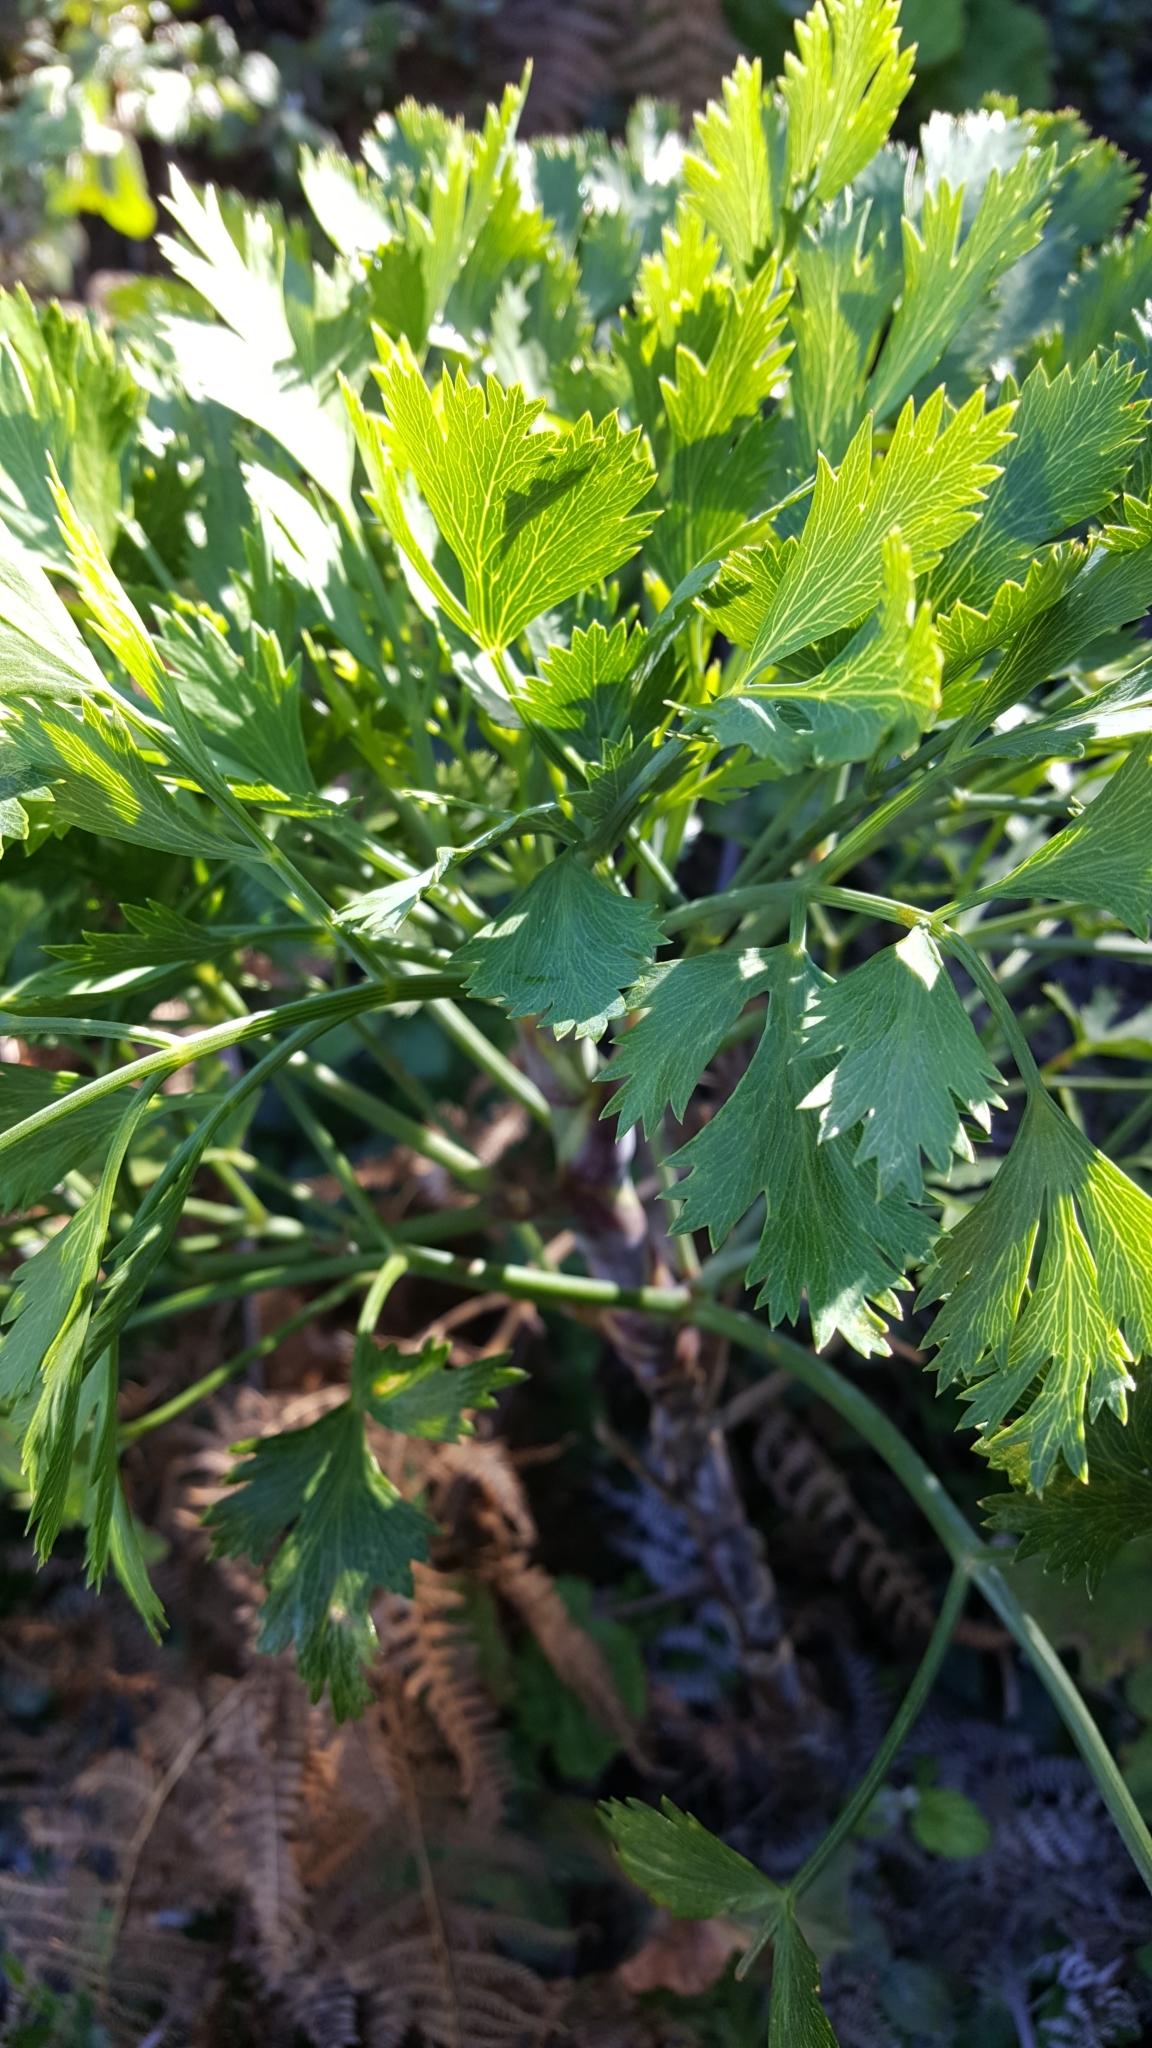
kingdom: Plantae
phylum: Tracheophyta
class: Magnoliopsida
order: Apiales
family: Apiaceae
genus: Notobubon
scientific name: Notobubon galbanum
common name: Blisterbush
